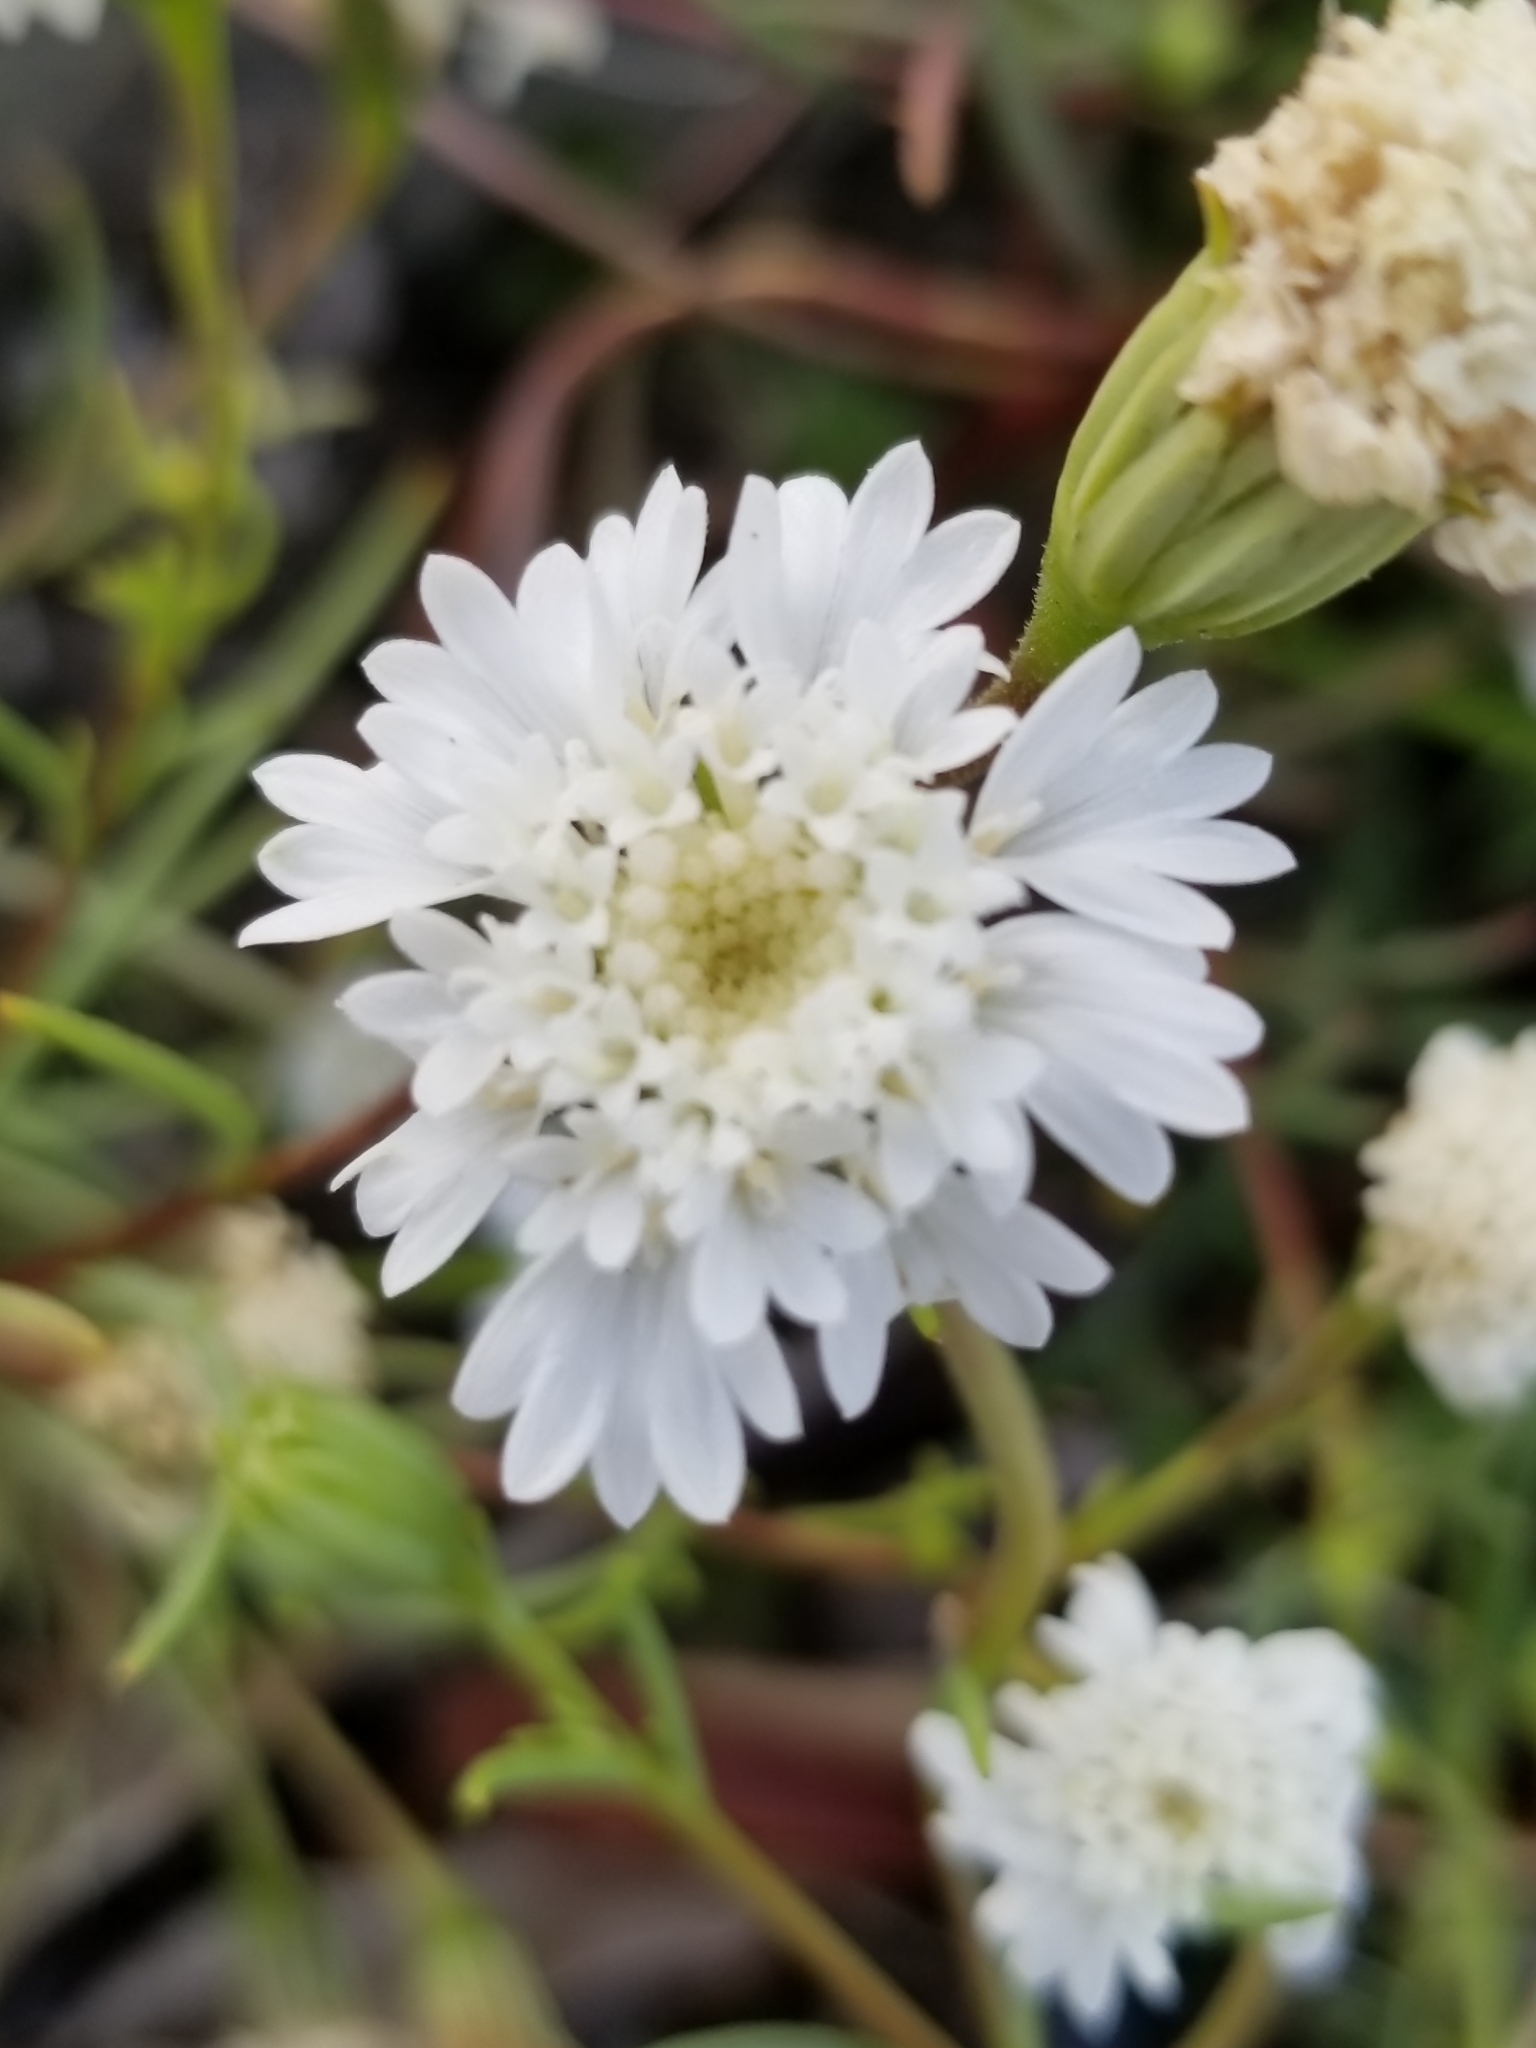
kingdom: Plantae
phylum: Tracheophyta
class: Magnoliopsida
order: Asterales
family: Asteraceae
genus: Chaenactis
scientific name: Chaenactis fremontii
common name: Fremont pincushion
